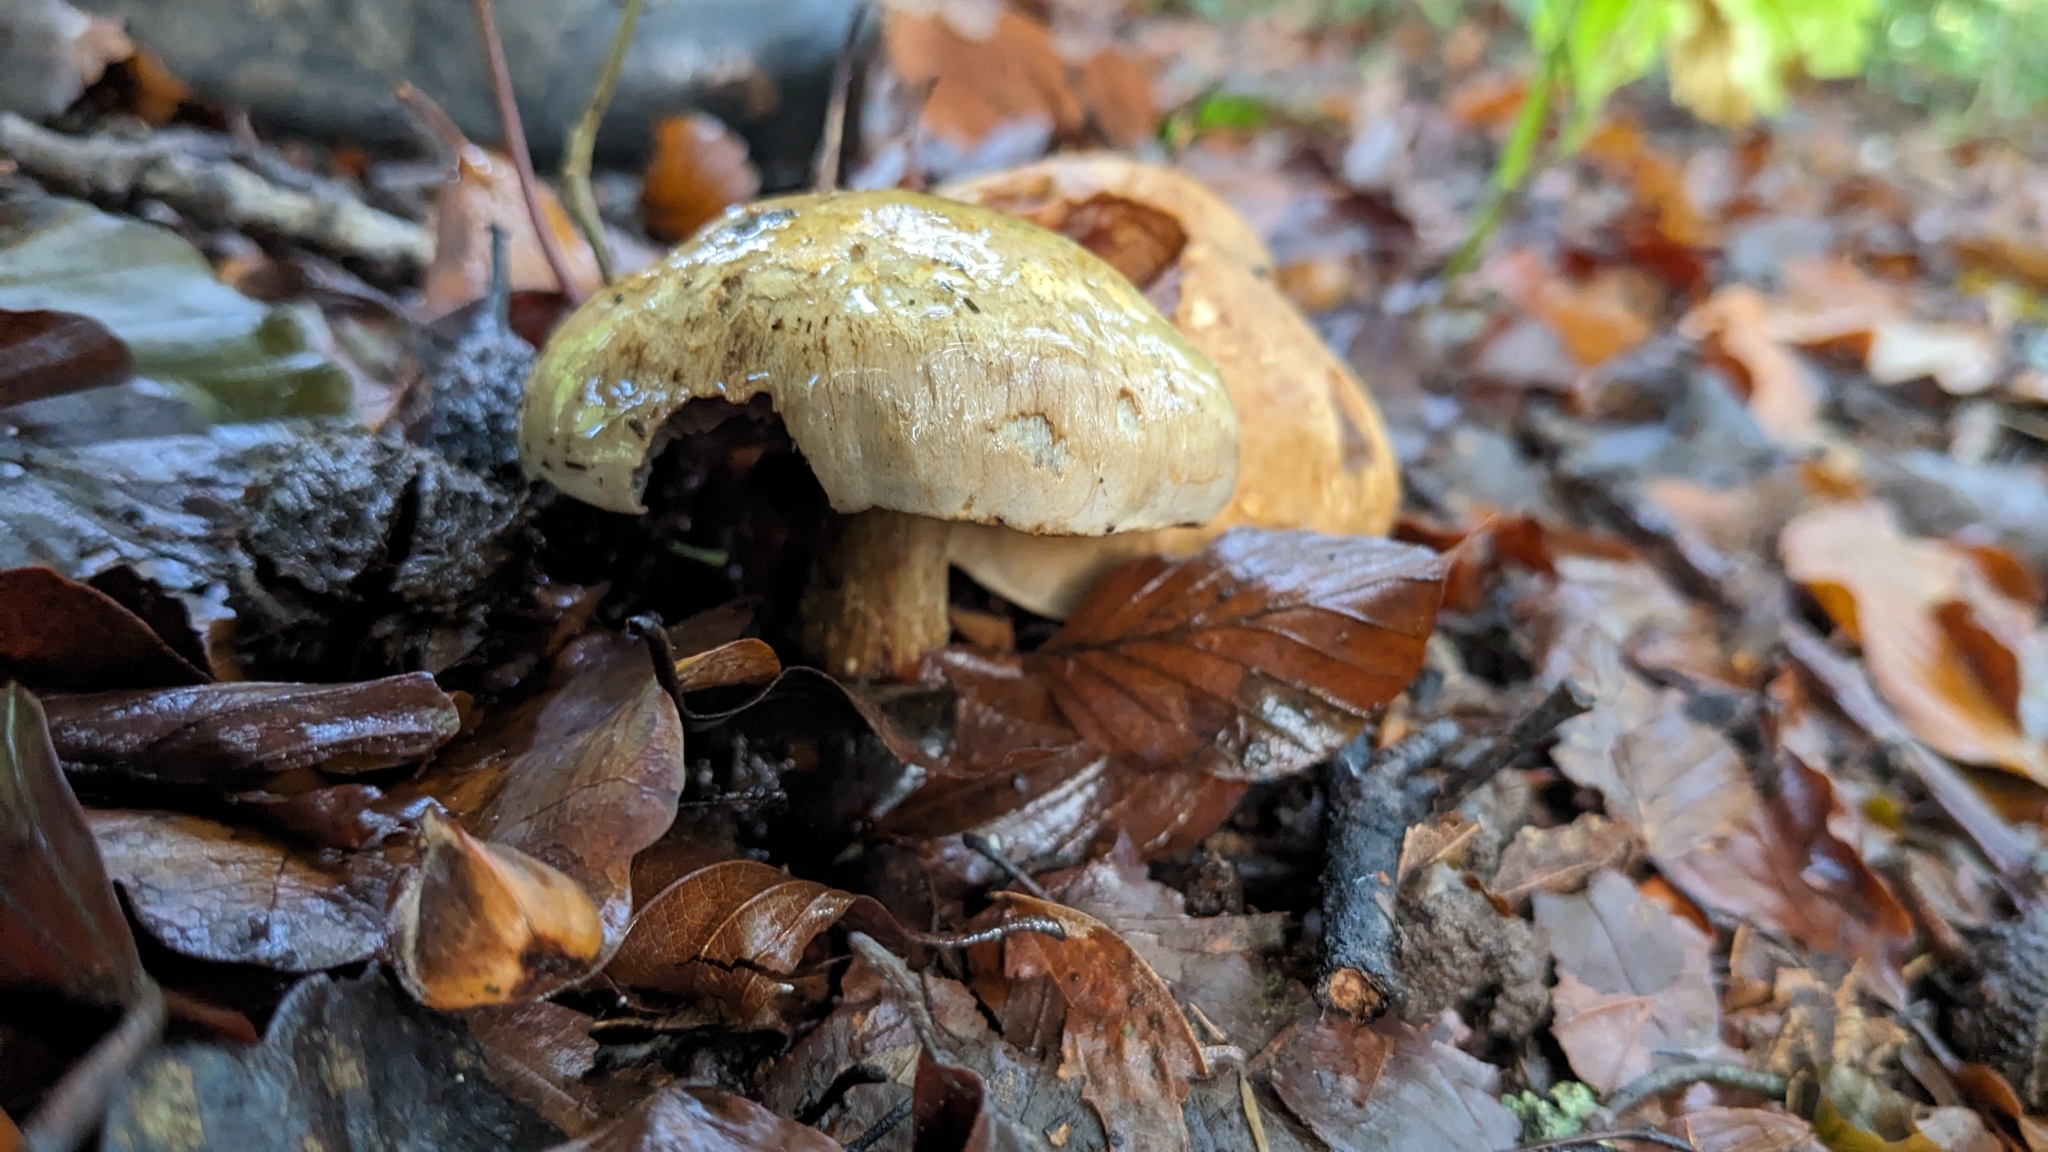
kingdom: Fungi
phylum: Basidiomycota
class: Agaricomycetes
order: Agaricales
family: Cortinariaceae
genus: Phlegmacium
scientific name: Phlegmacium luhmannii
